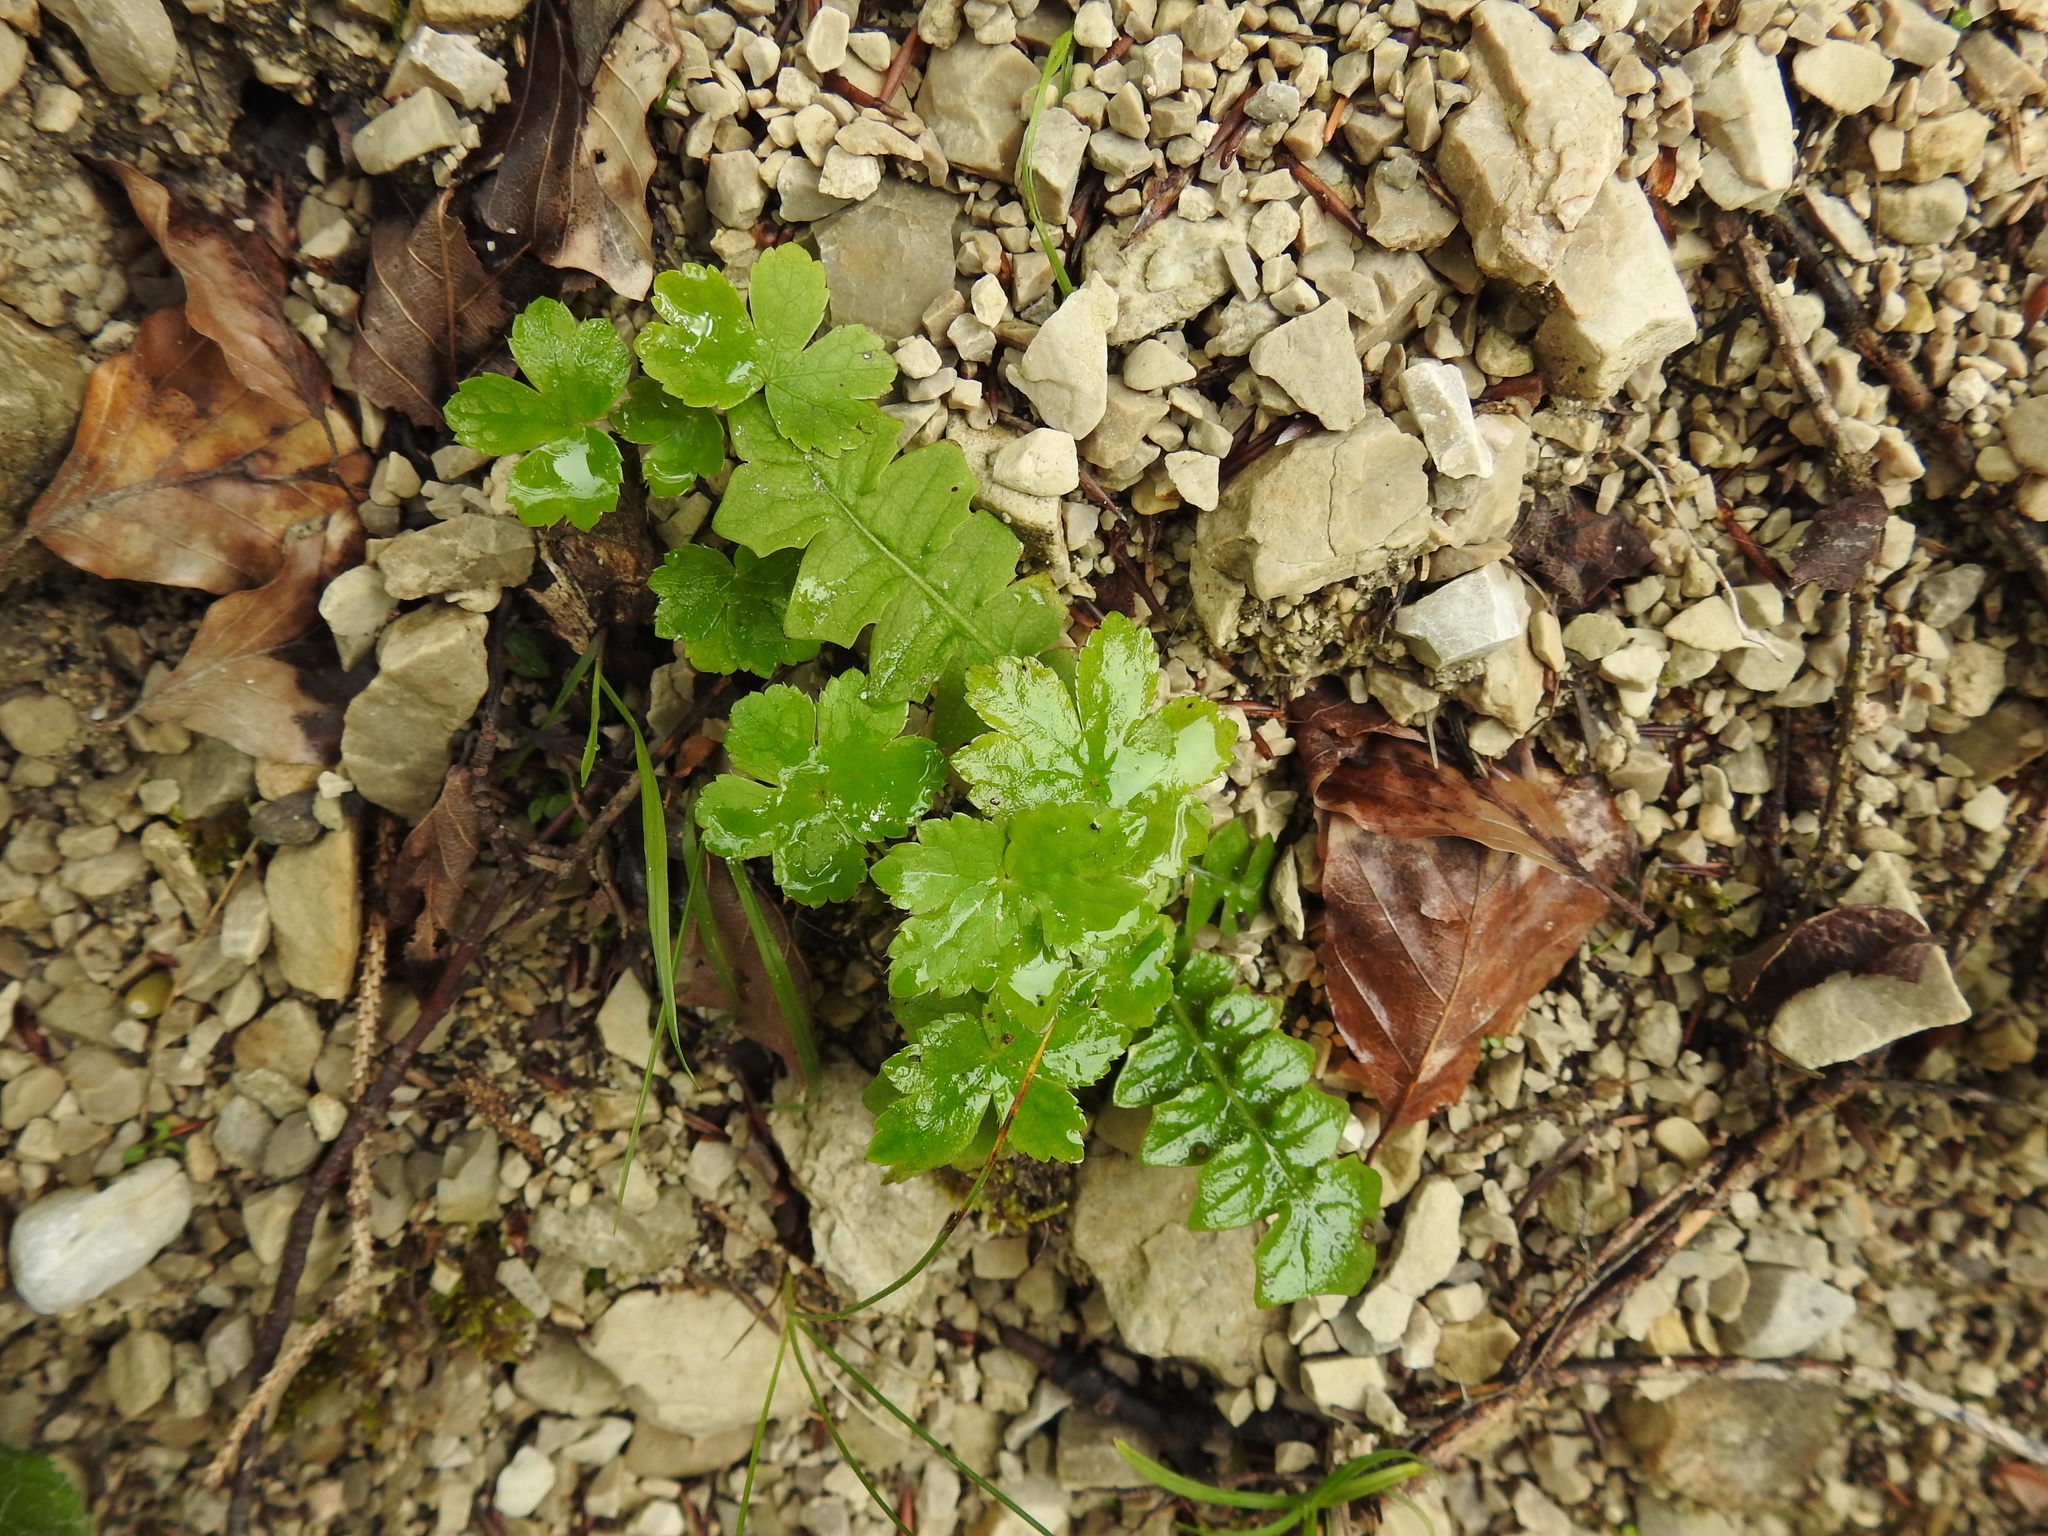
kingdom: Plantae
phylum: Tracheophyta
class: Magnoliopsida
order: Asterales
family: Asteraceae
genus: Aposeris
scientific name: Aposeris foetida
